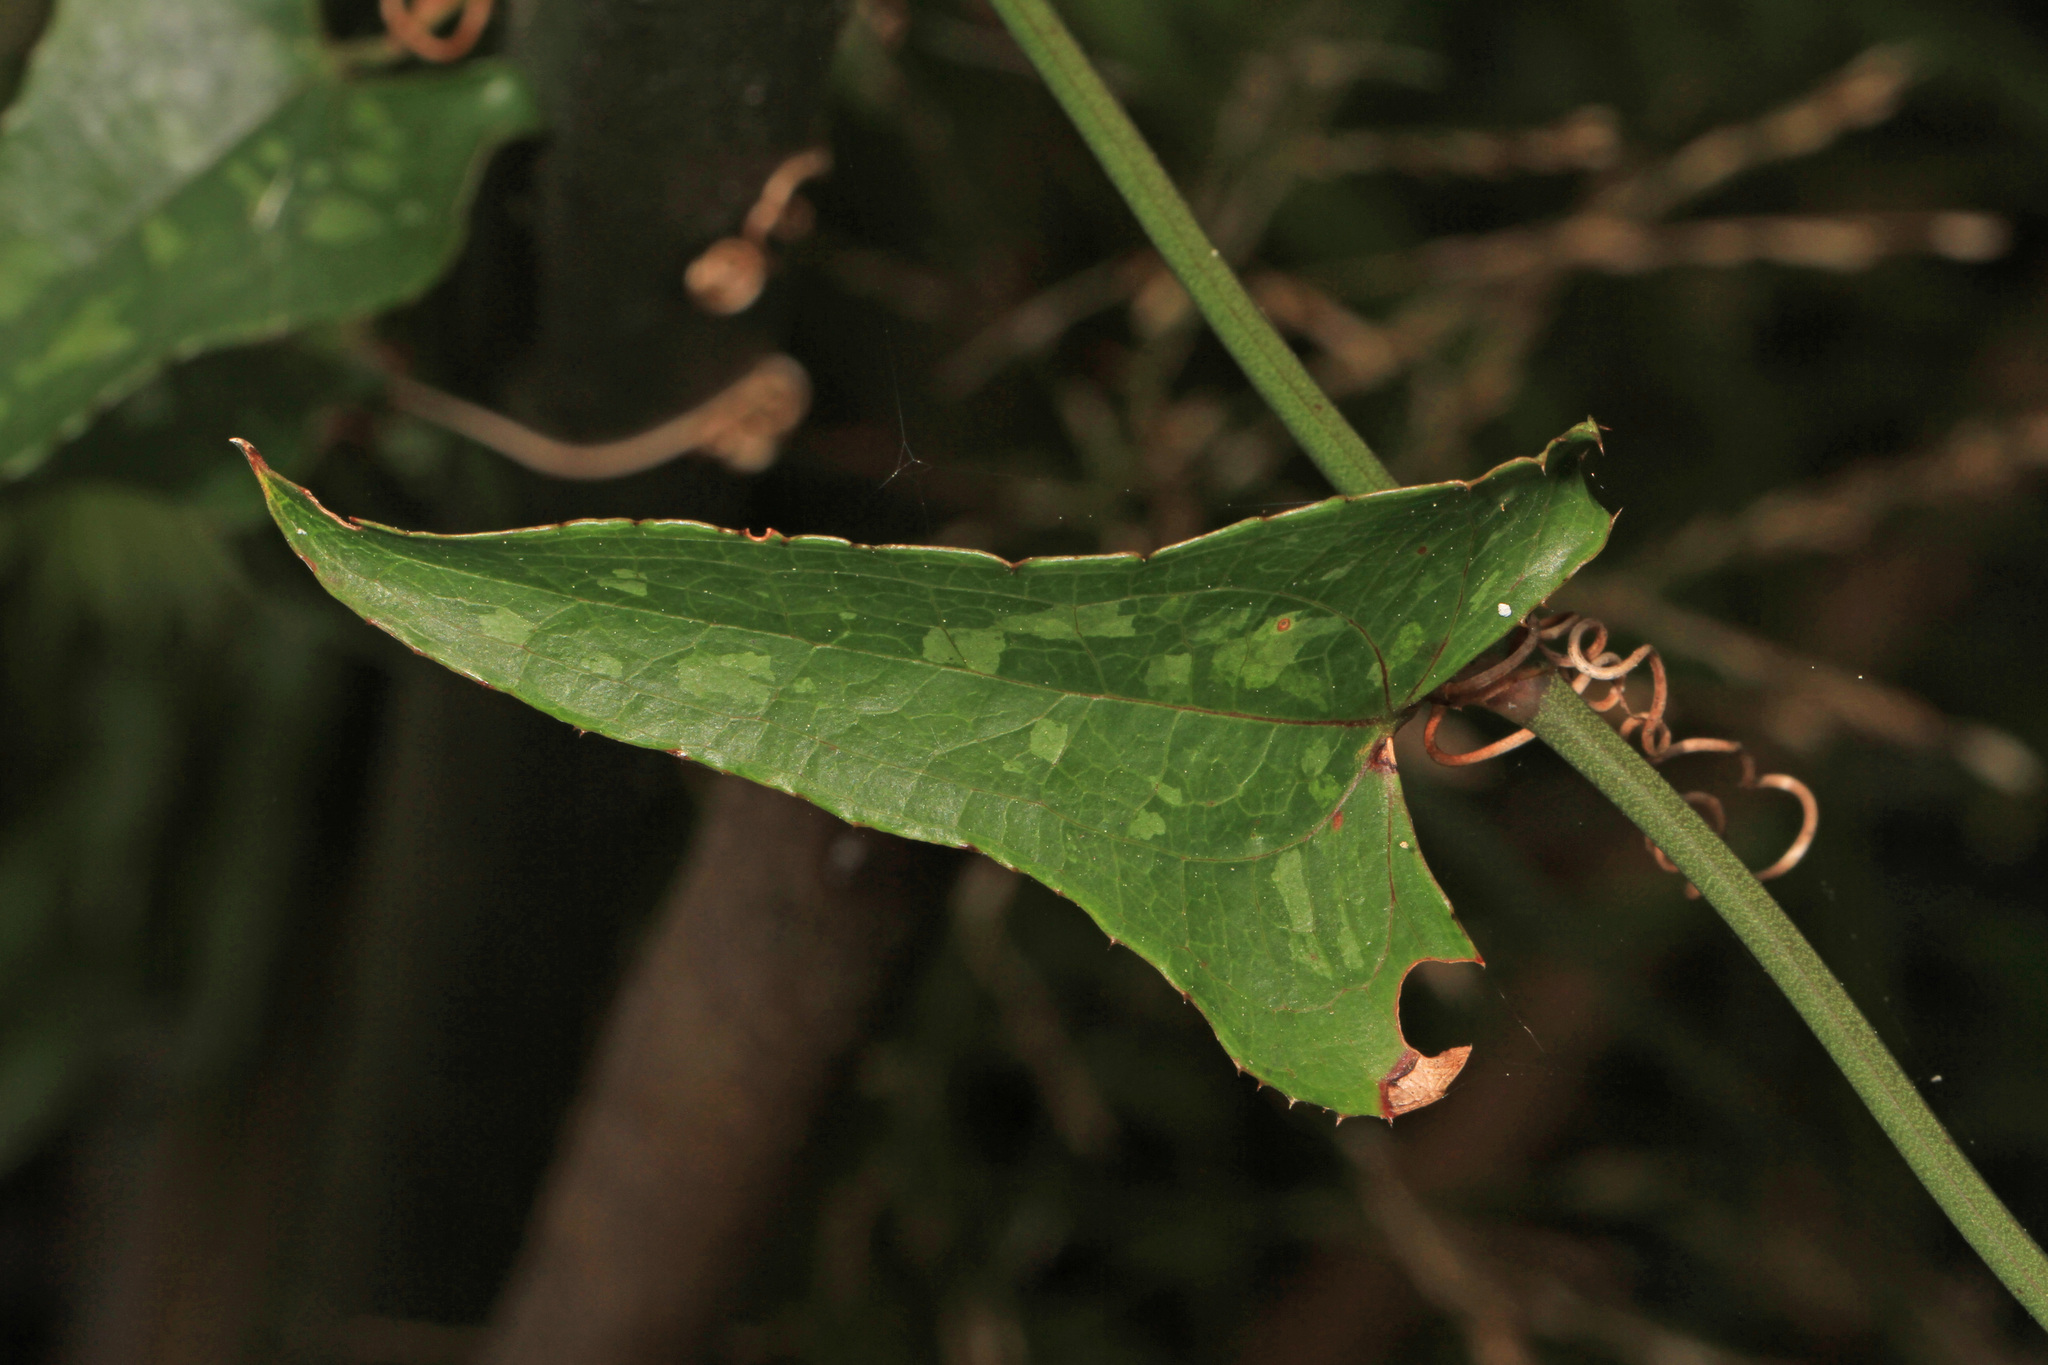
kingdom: Plantae
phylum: Tracheophyta
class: Liliopsida
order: Liliales
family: Smilacaceae
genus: Smilax
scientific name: Smilax bona-nox
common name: Catbrier
